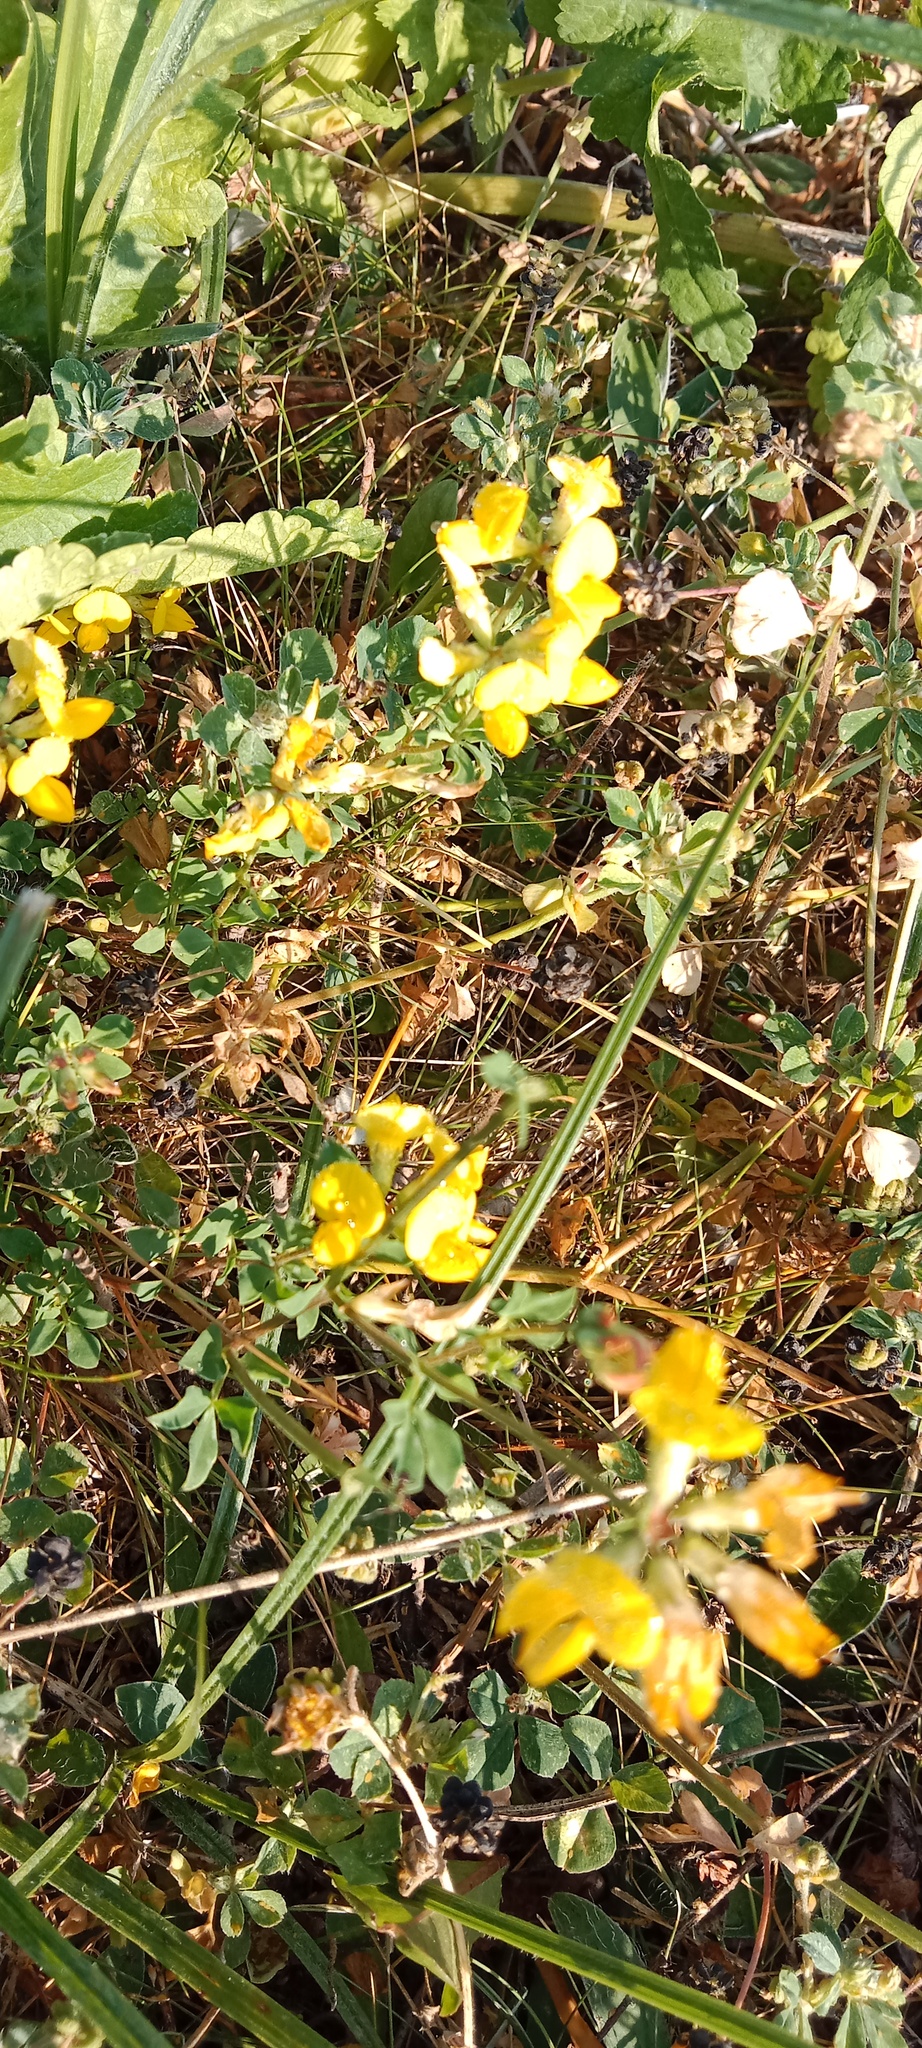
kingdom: Plantae
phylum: Tracheophyta
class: Magnoliopsida
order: Fabales
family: Fabaceae
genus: Lotus
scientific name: Lotus corniculatus
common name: Common bird's-foot-trefoil
